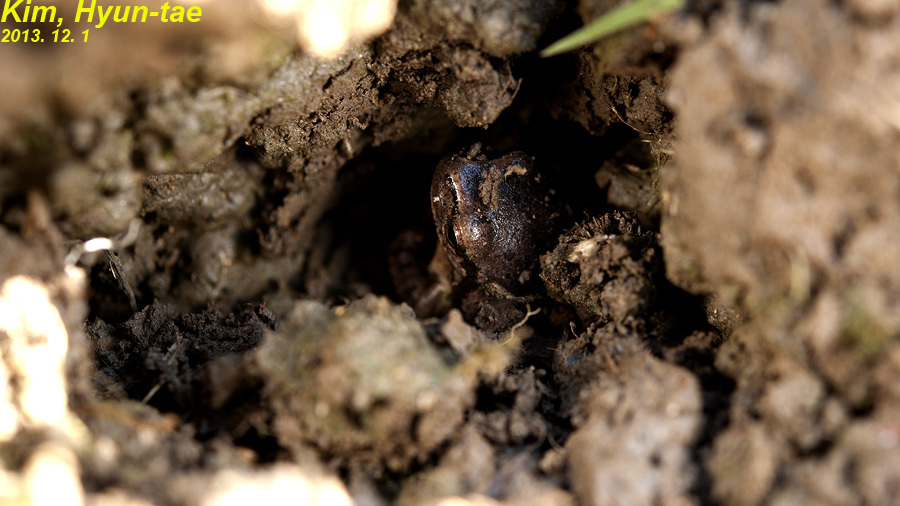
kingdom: Animalia
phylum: Chordata
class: Amphibia
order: Anura
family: Hylidae
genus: Dryophytes
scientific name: Dryophytes japonicus
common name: Japanese treefrog
